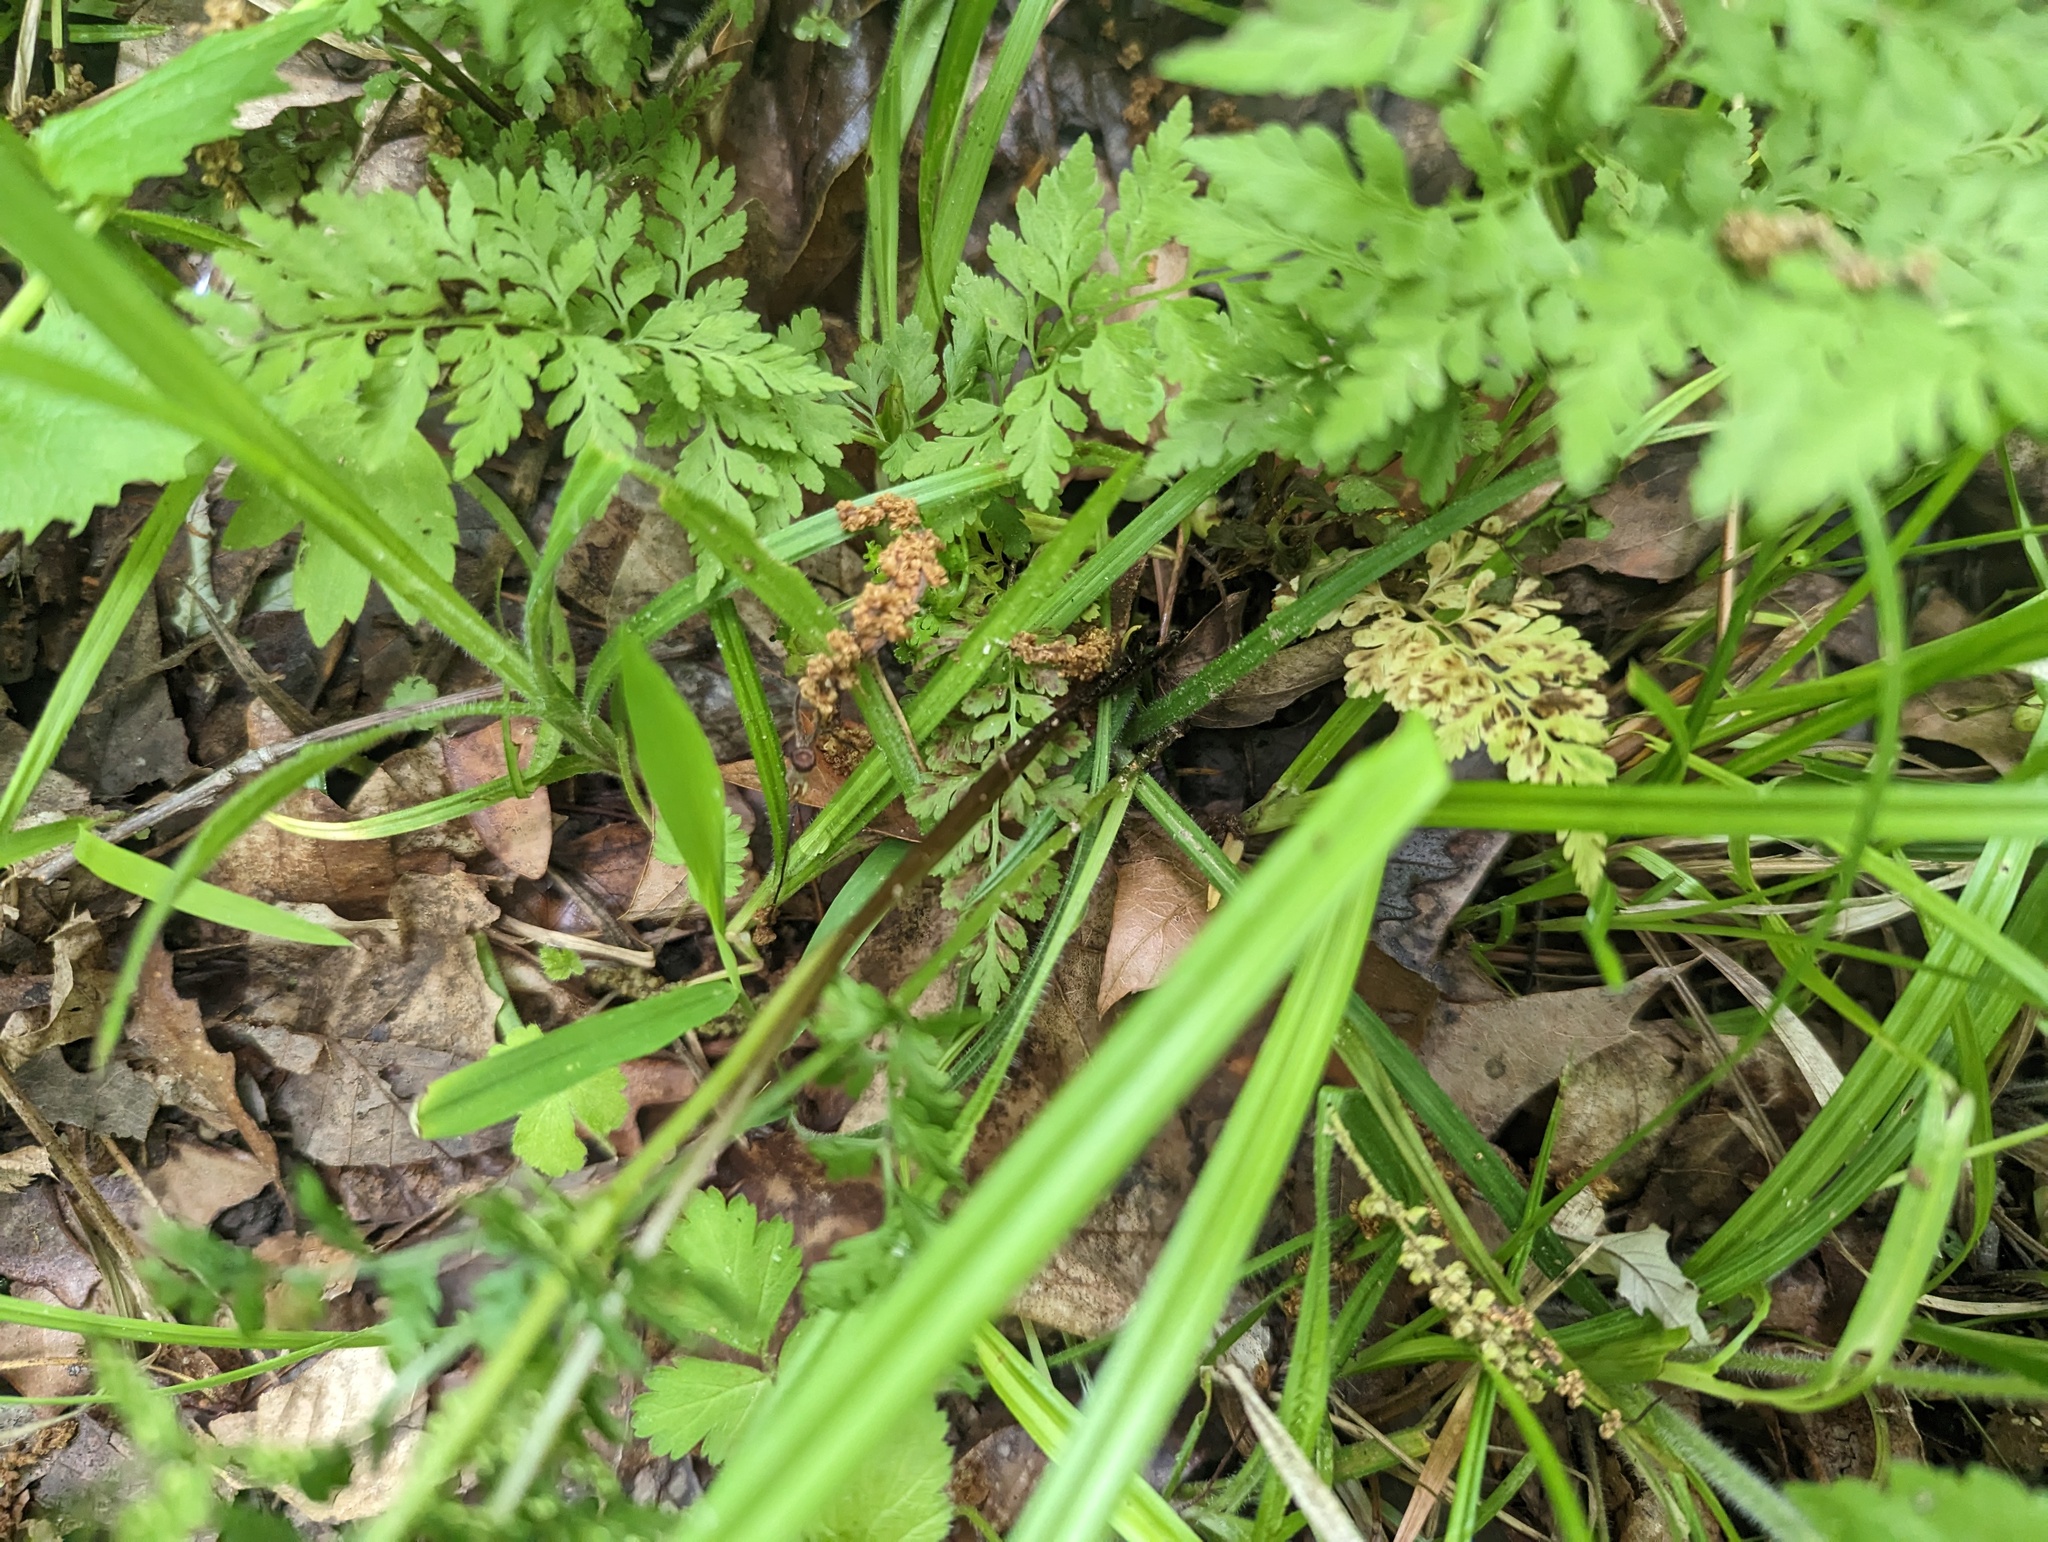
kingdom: Plantae
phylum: Tracheophyta
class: Polypodiopsida
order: Polypodiales
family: Cystopteridaceae
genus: Cystopteris
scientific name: Cystopteris protrusa
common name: Lowland brittle fern
